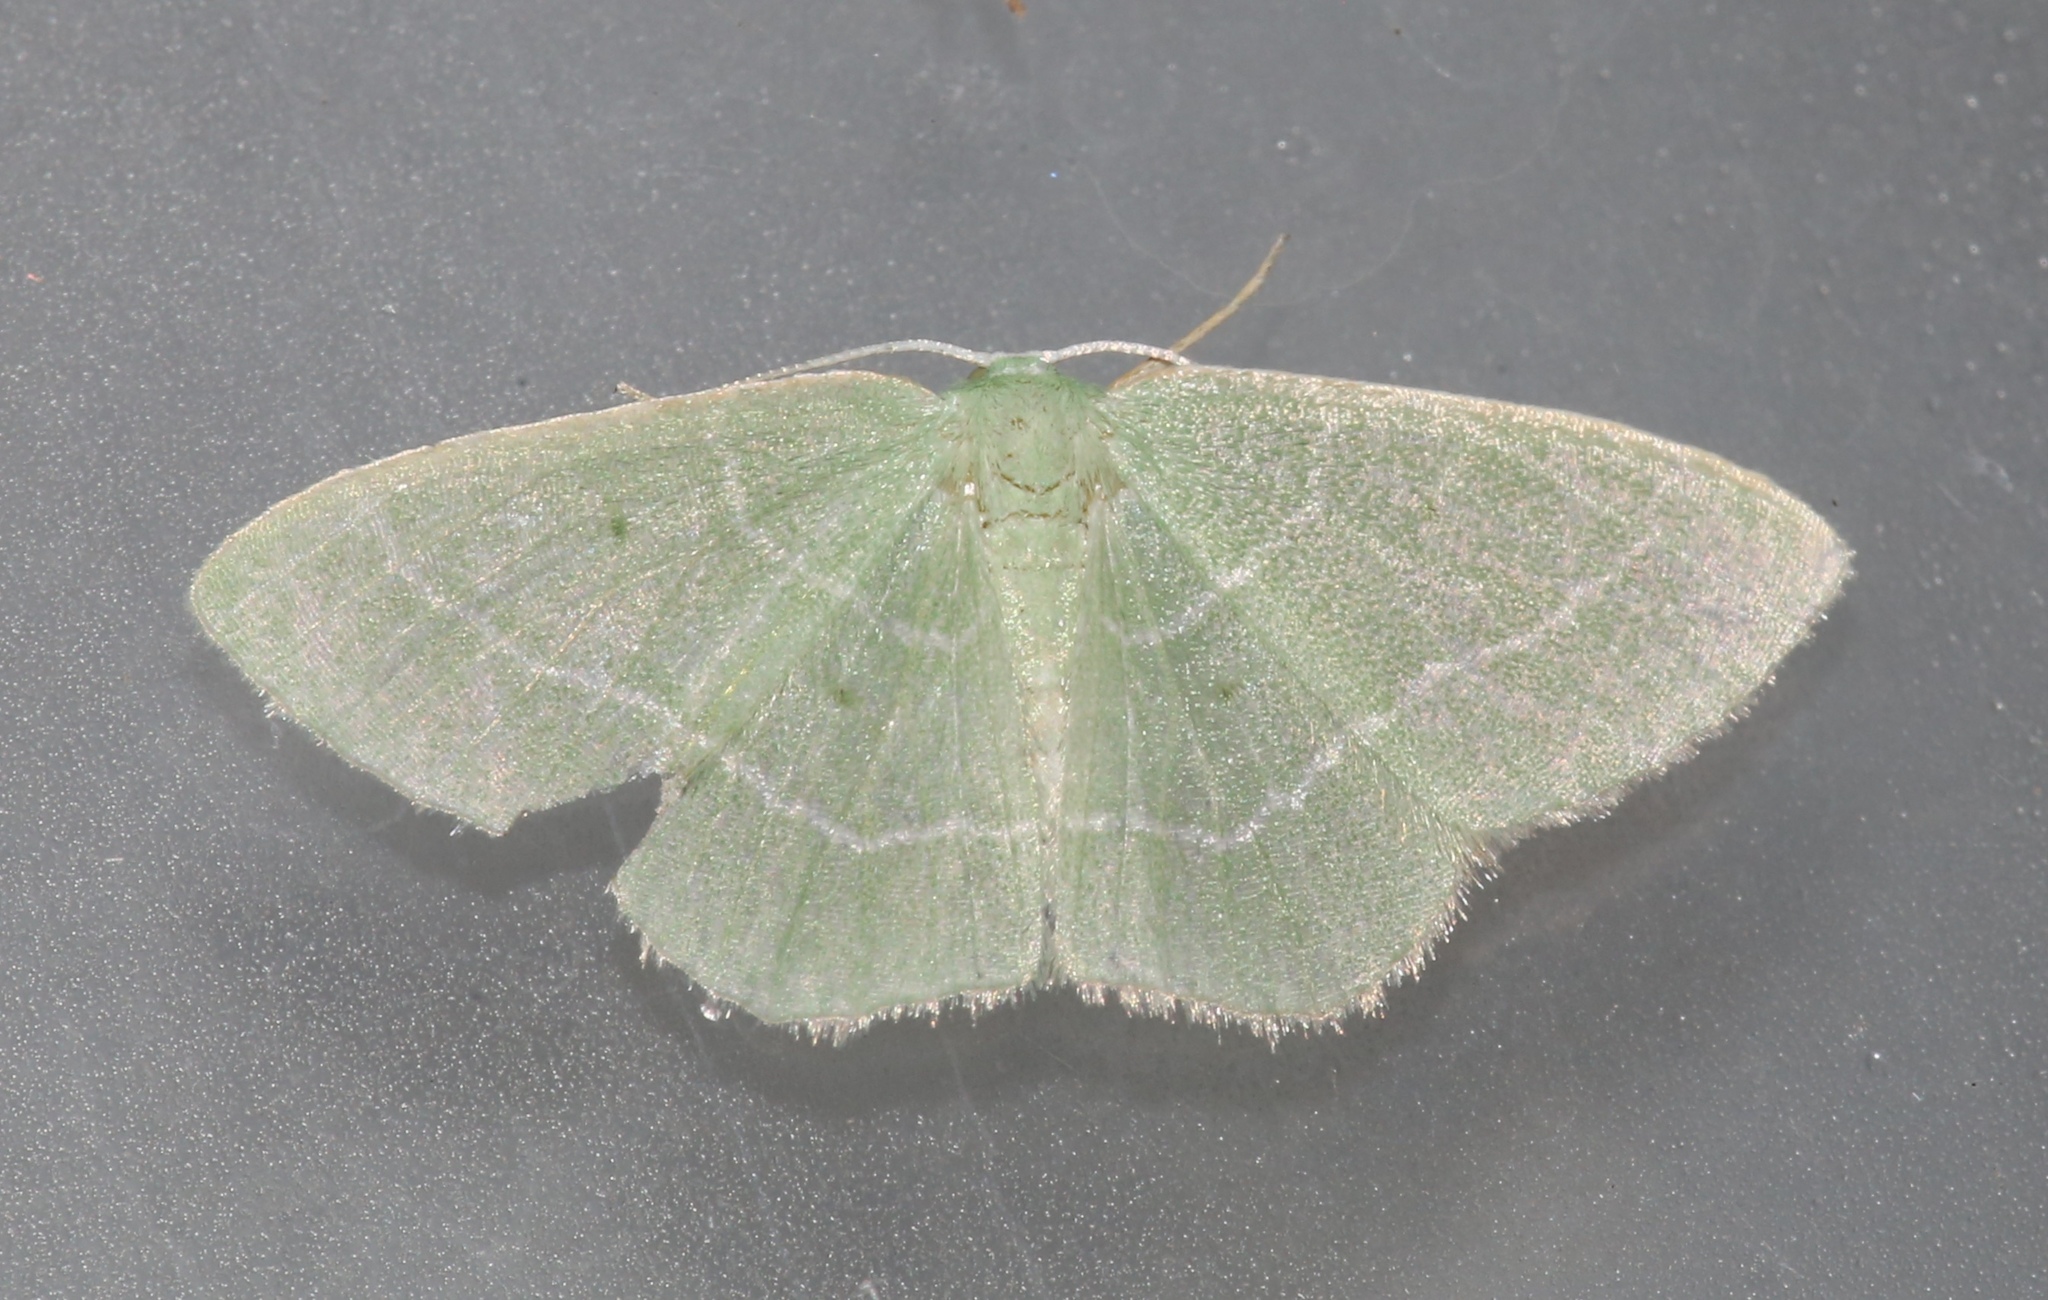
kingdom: Animalia
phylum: Arthropoda
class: Insecta
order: Lepidoptera
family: Geometridae
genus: Nemoria
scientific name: Nemoria elfa
